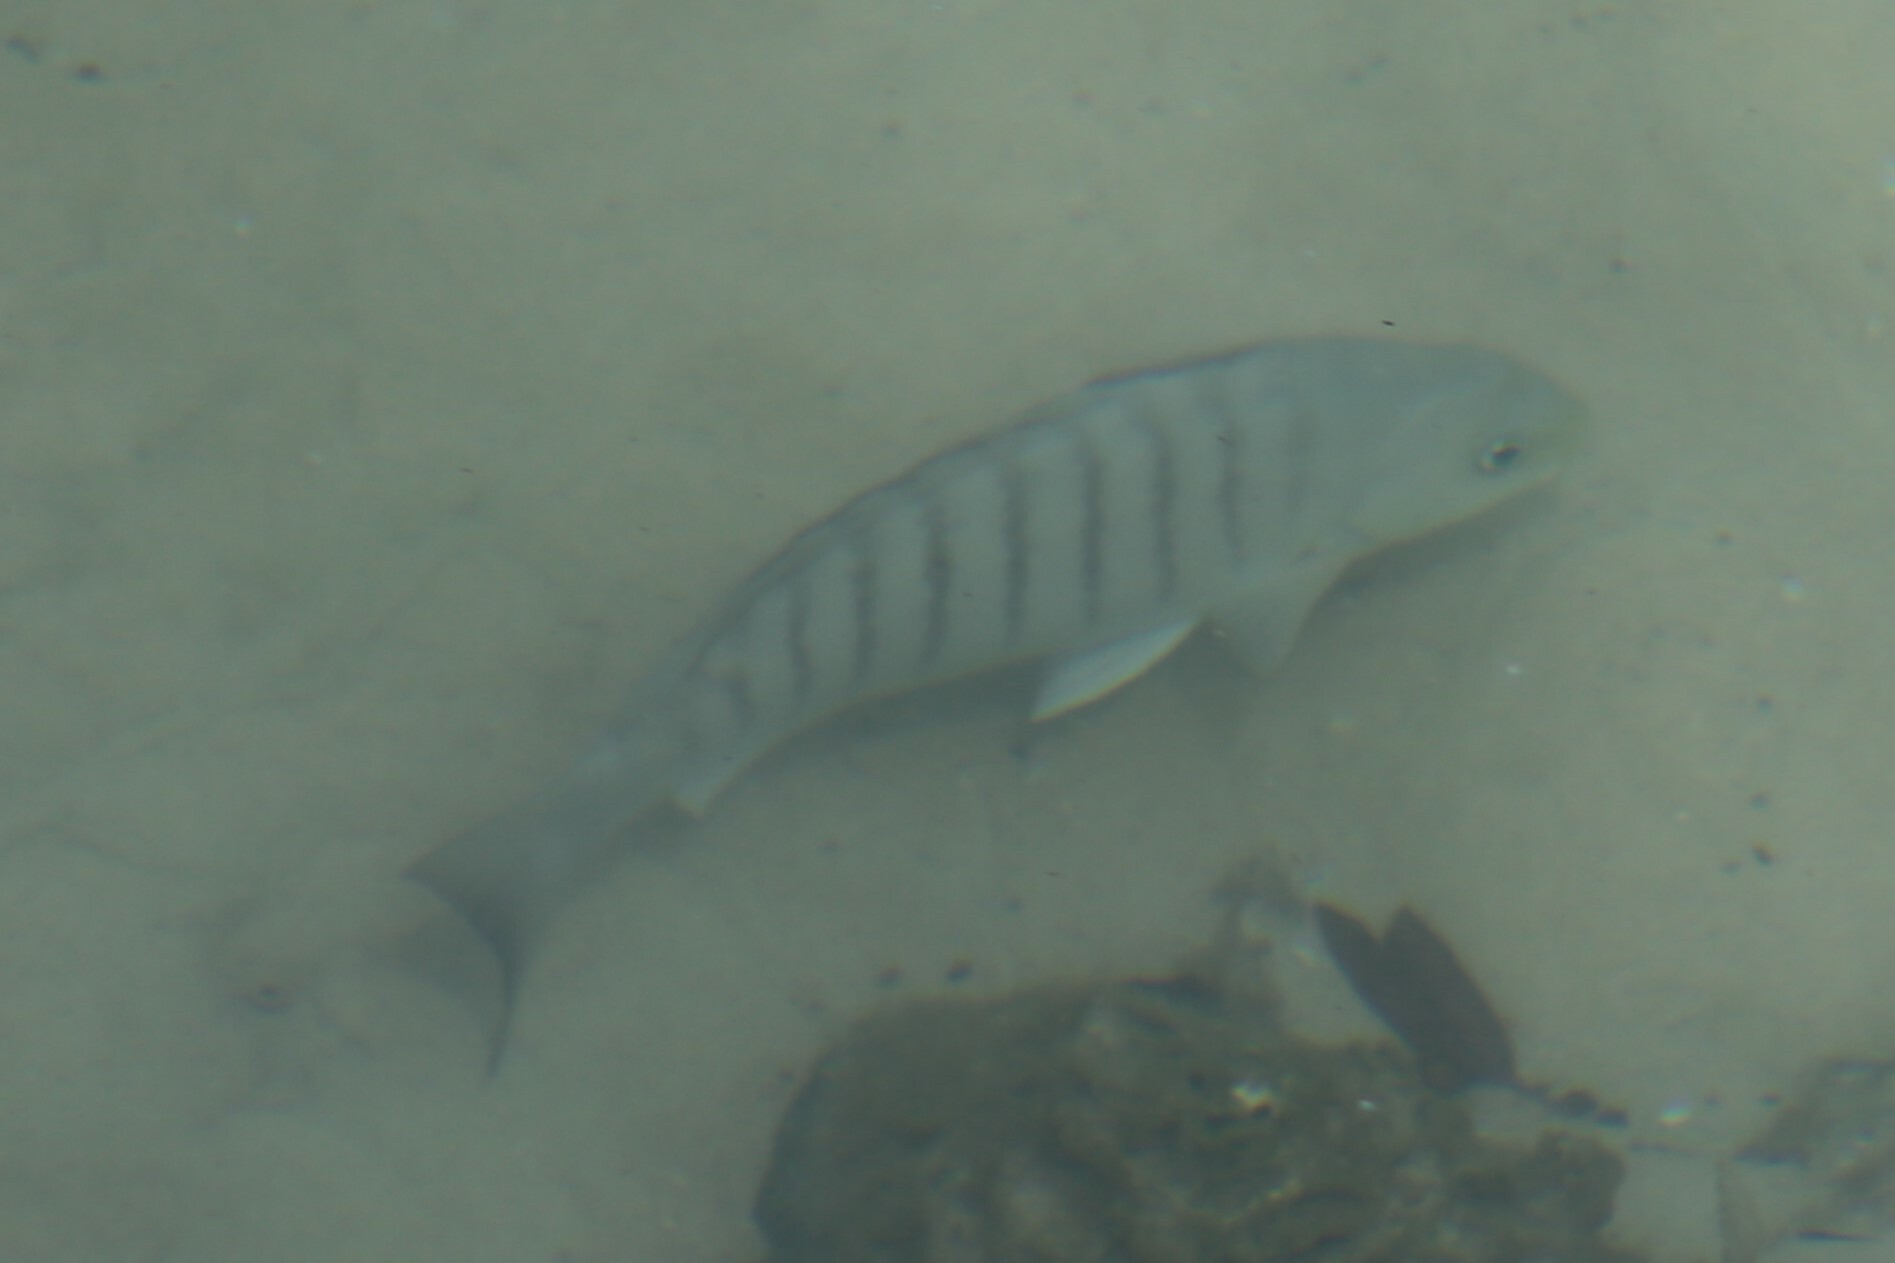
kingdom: Animalia
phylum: Chordata
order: Perciformes
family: Kyphosidae
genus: Girella
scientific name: Girella tricuspidata
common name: Parore
